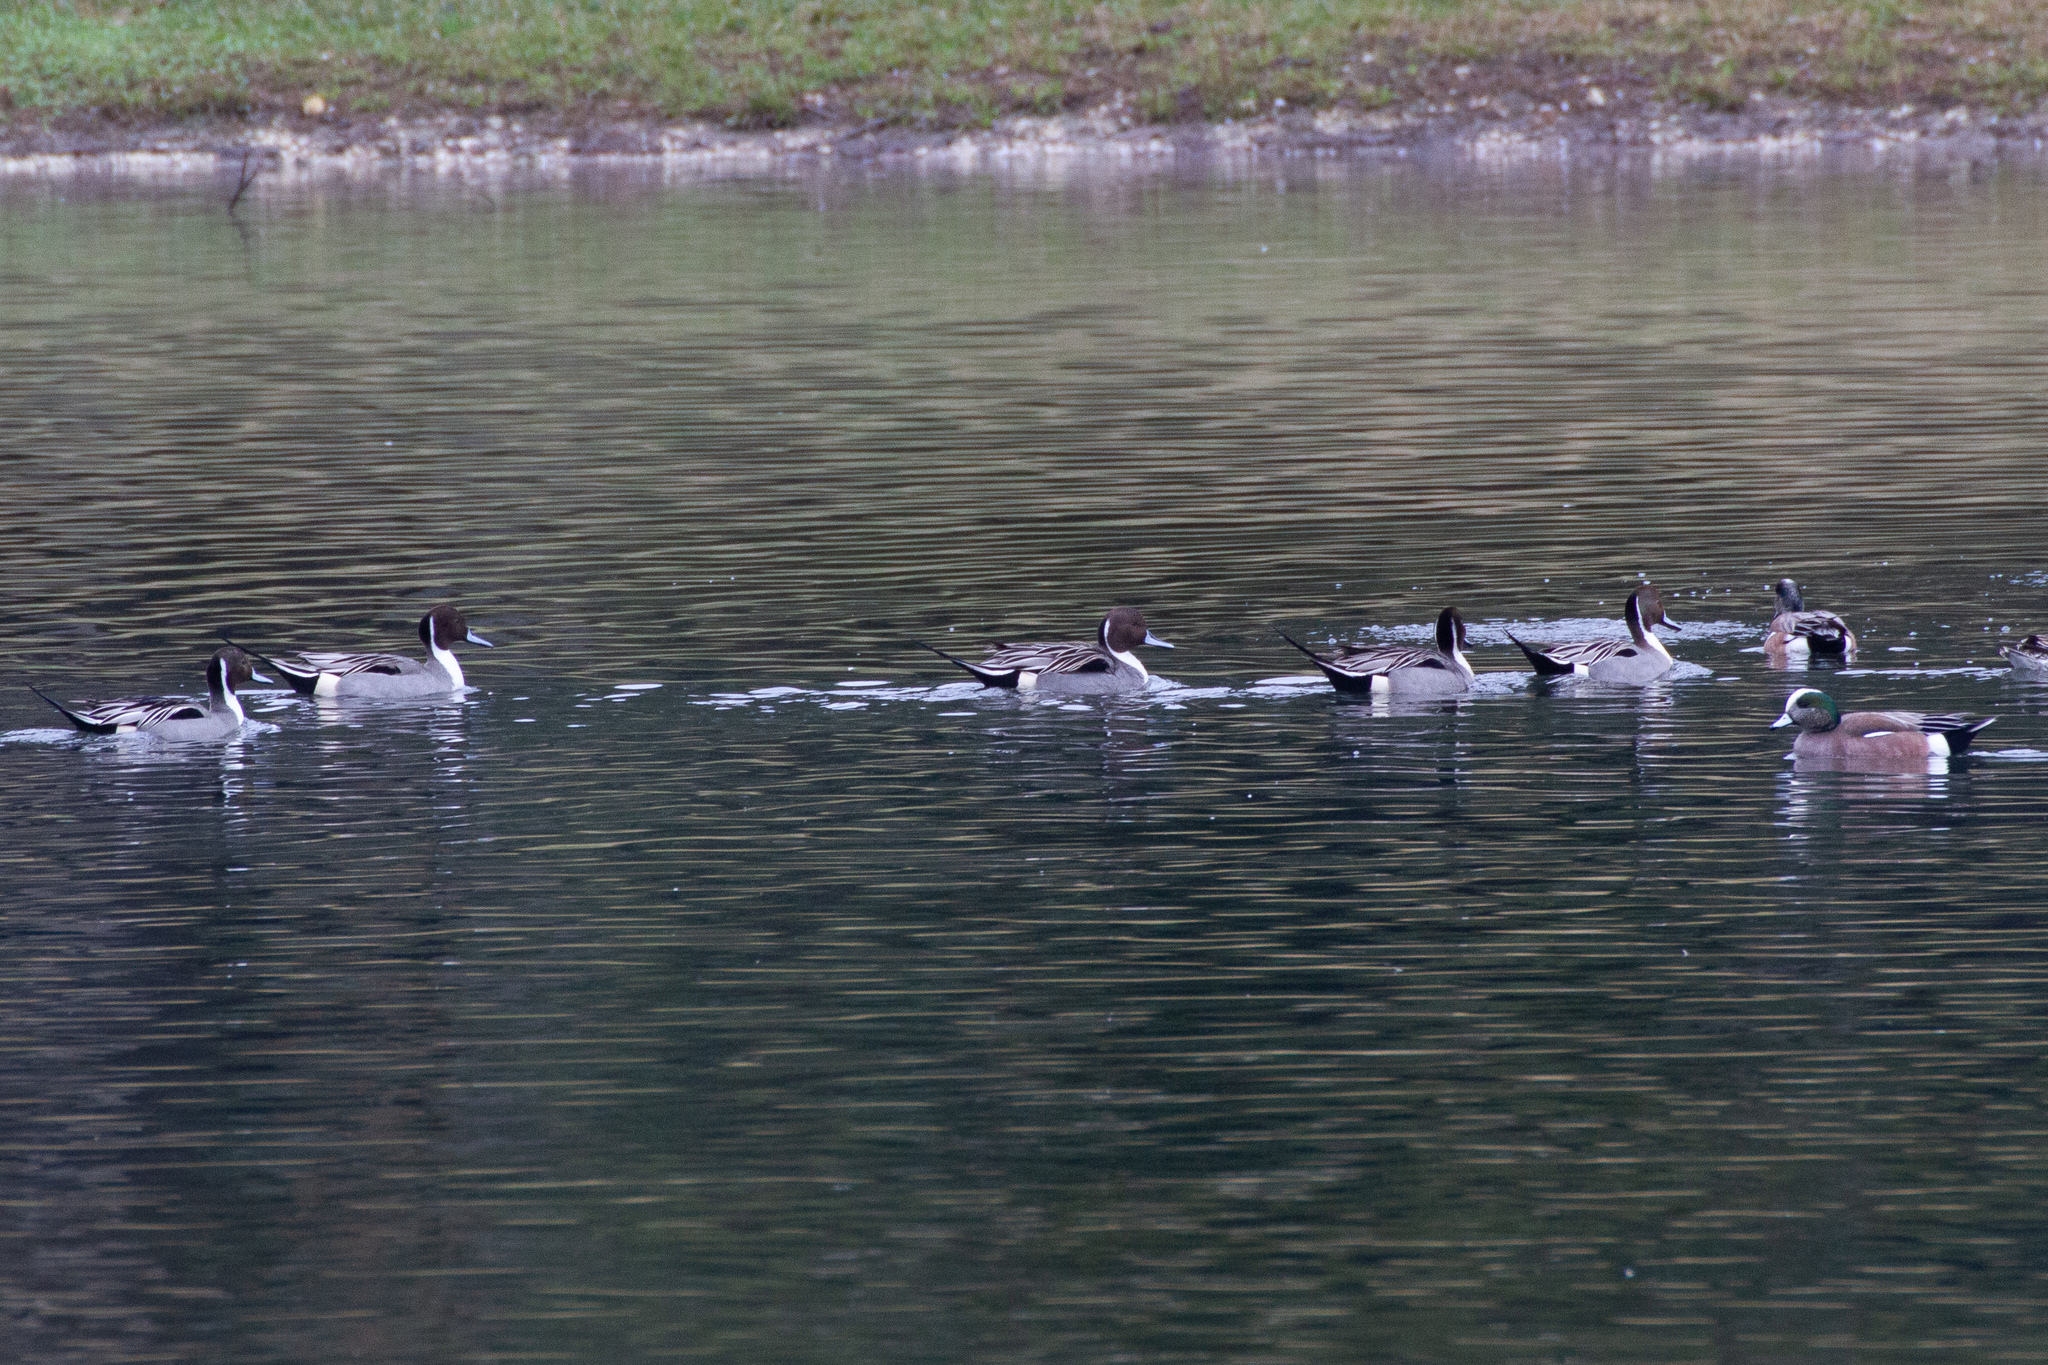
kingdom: Animalia
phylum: Chordata
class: Aves
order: Anseriformes
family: Anatidae
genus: Anas
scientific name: Anas acuta
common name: Northern pintail
